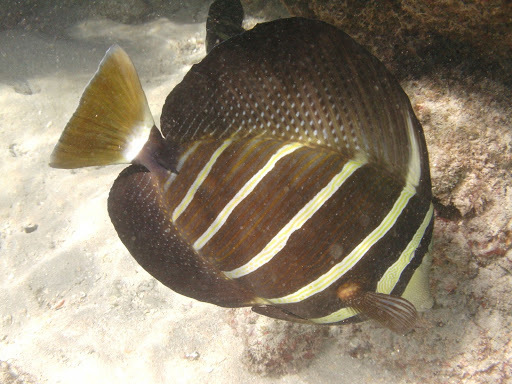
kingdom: Animalia
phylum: Chordata
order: Perciformes
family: Acanthuridae
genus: Zebrasoma
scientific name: Zebrasoma veliferum
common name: Sailfin surgeonfish
